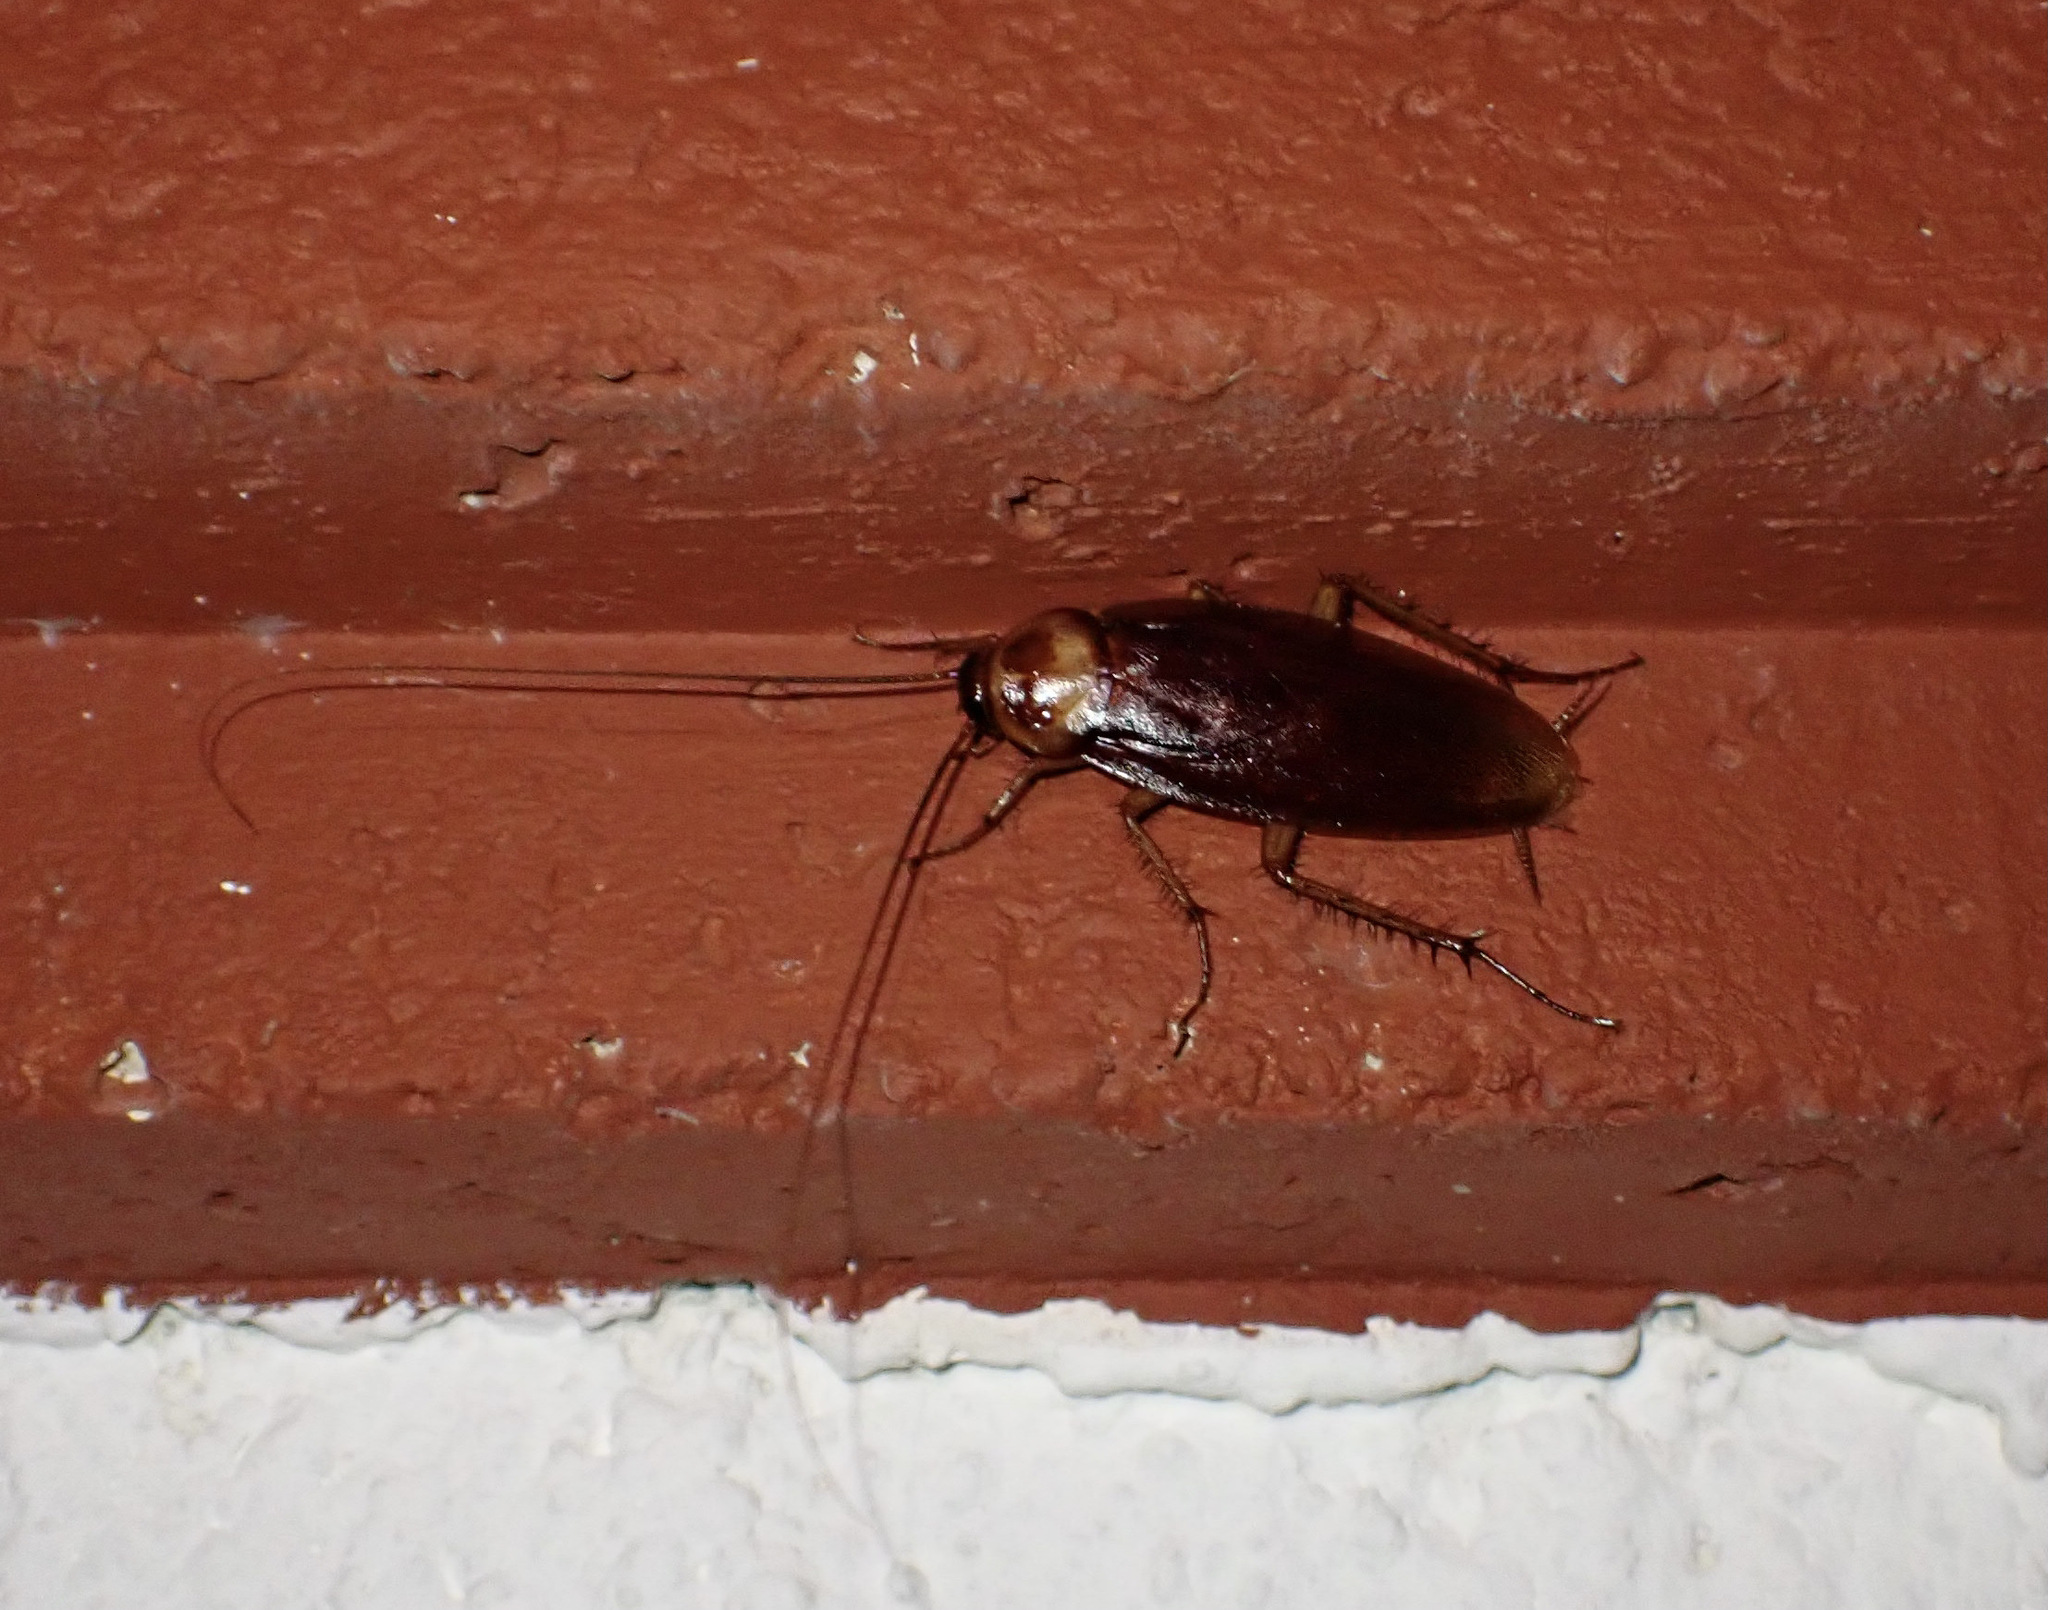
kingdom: Animalia
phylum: Arthropoda
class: Insecta
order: Blattodea
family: Blattidae
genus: Periplaneta
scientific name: Periplaneta americana
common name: American cockroach
